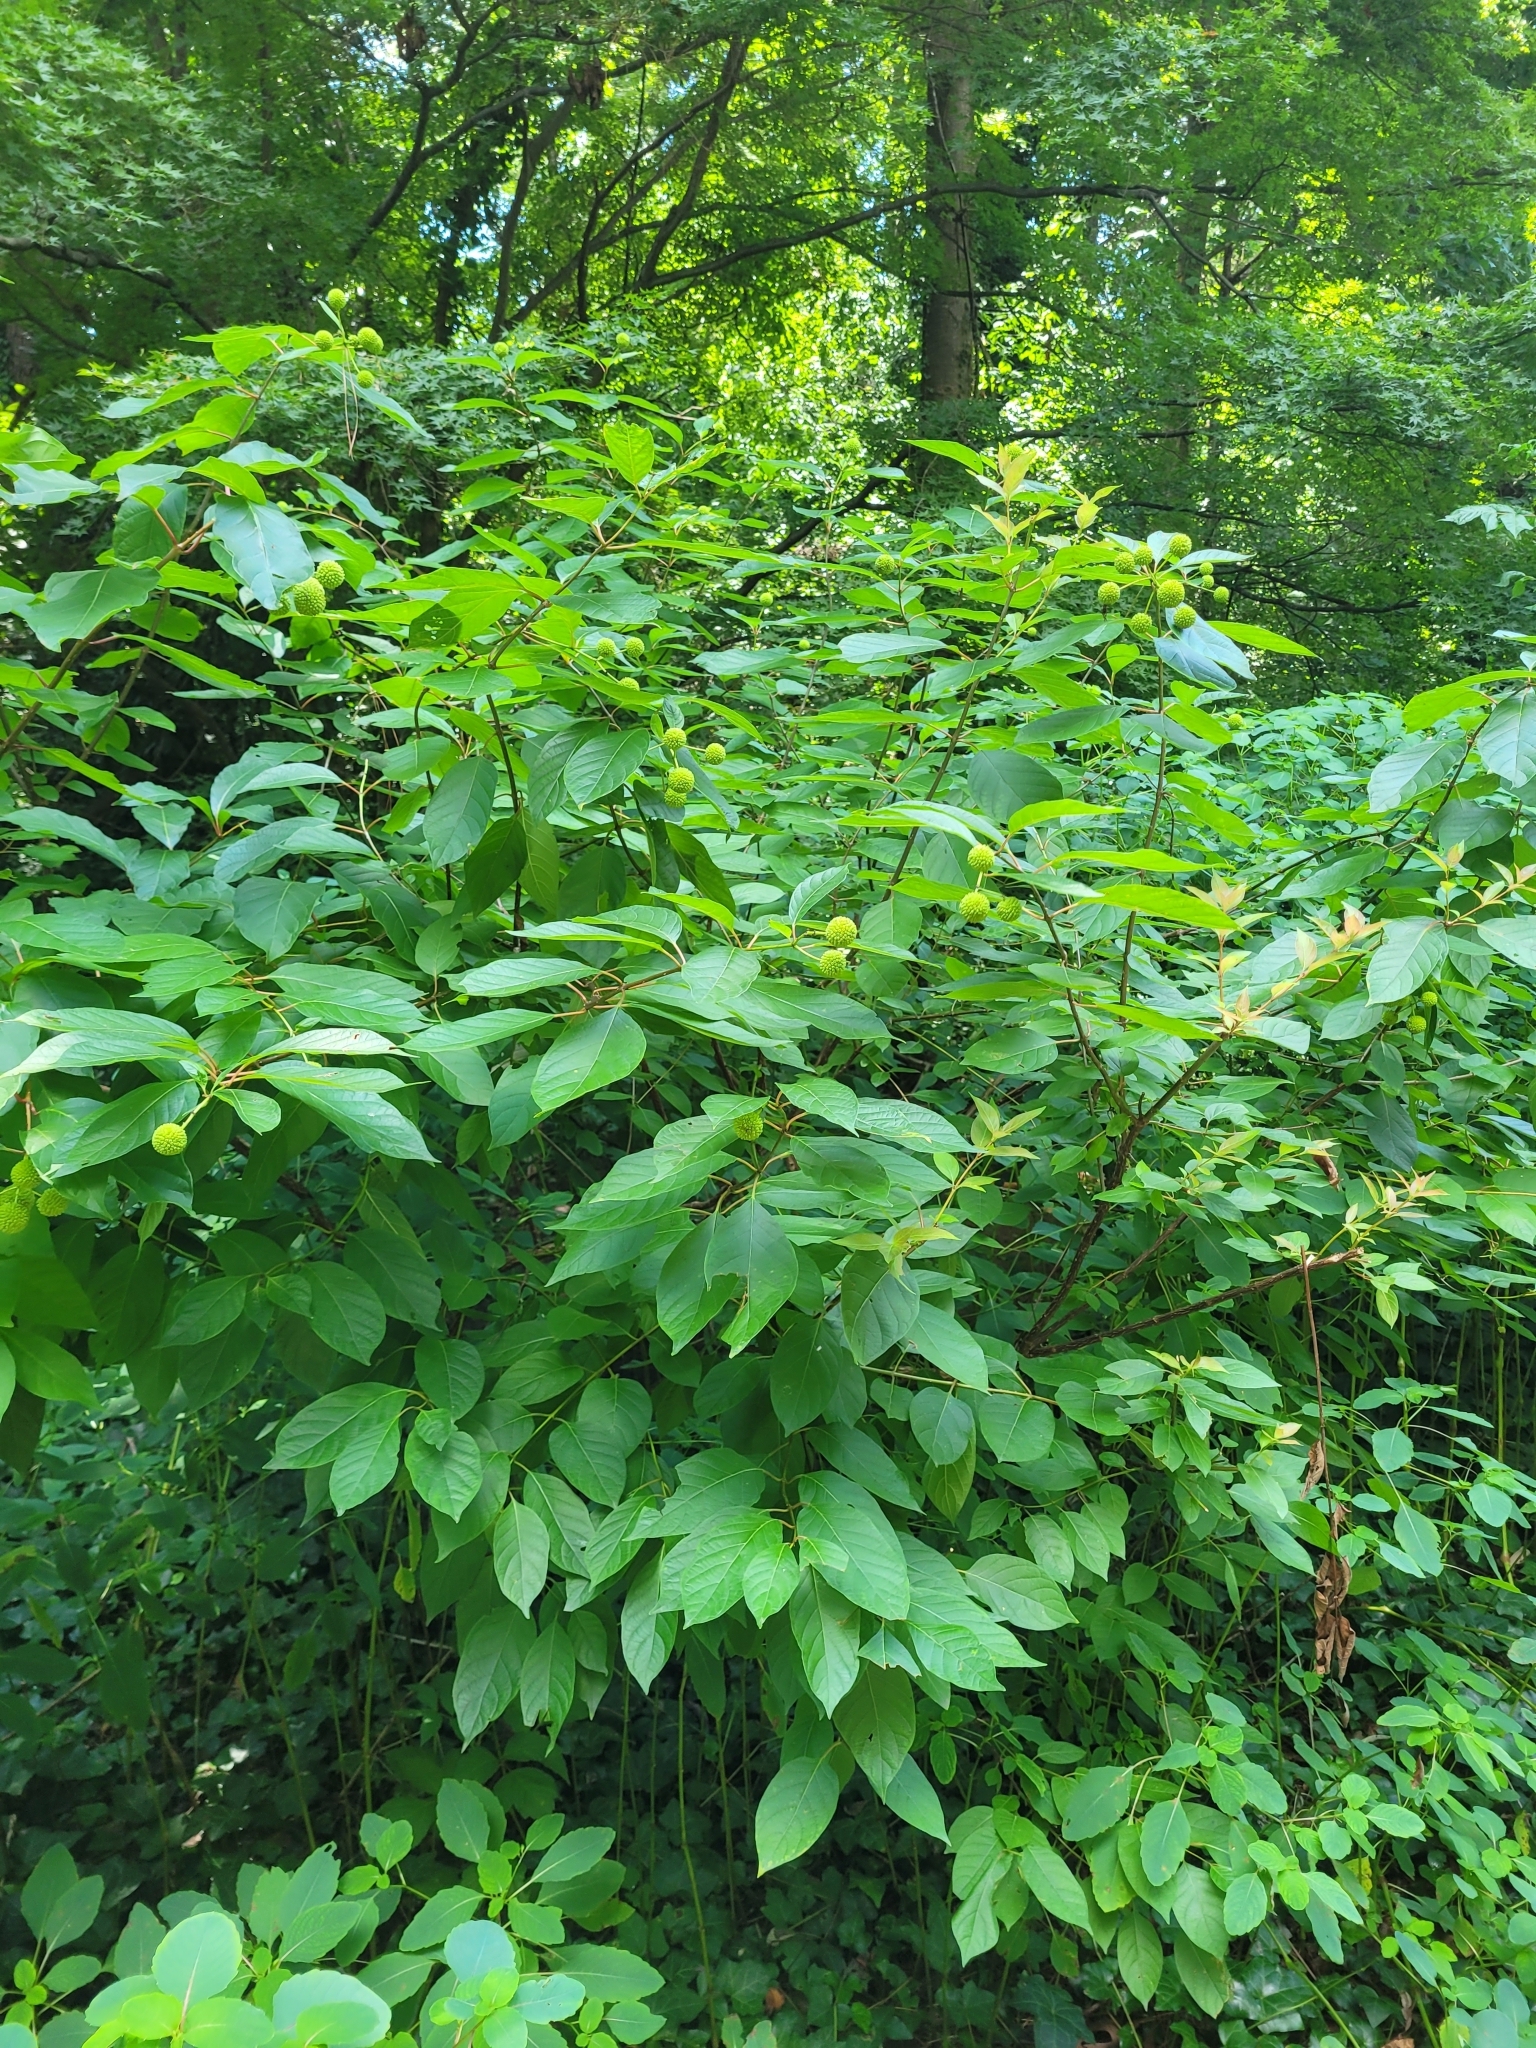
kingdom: Plantae
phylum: Tracheophyta
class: Magnoliopsida
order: Gentianales
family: Rubiaceae
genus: Cephalanthus
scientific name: Cephalanthus occidentalis
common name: Button-willow
